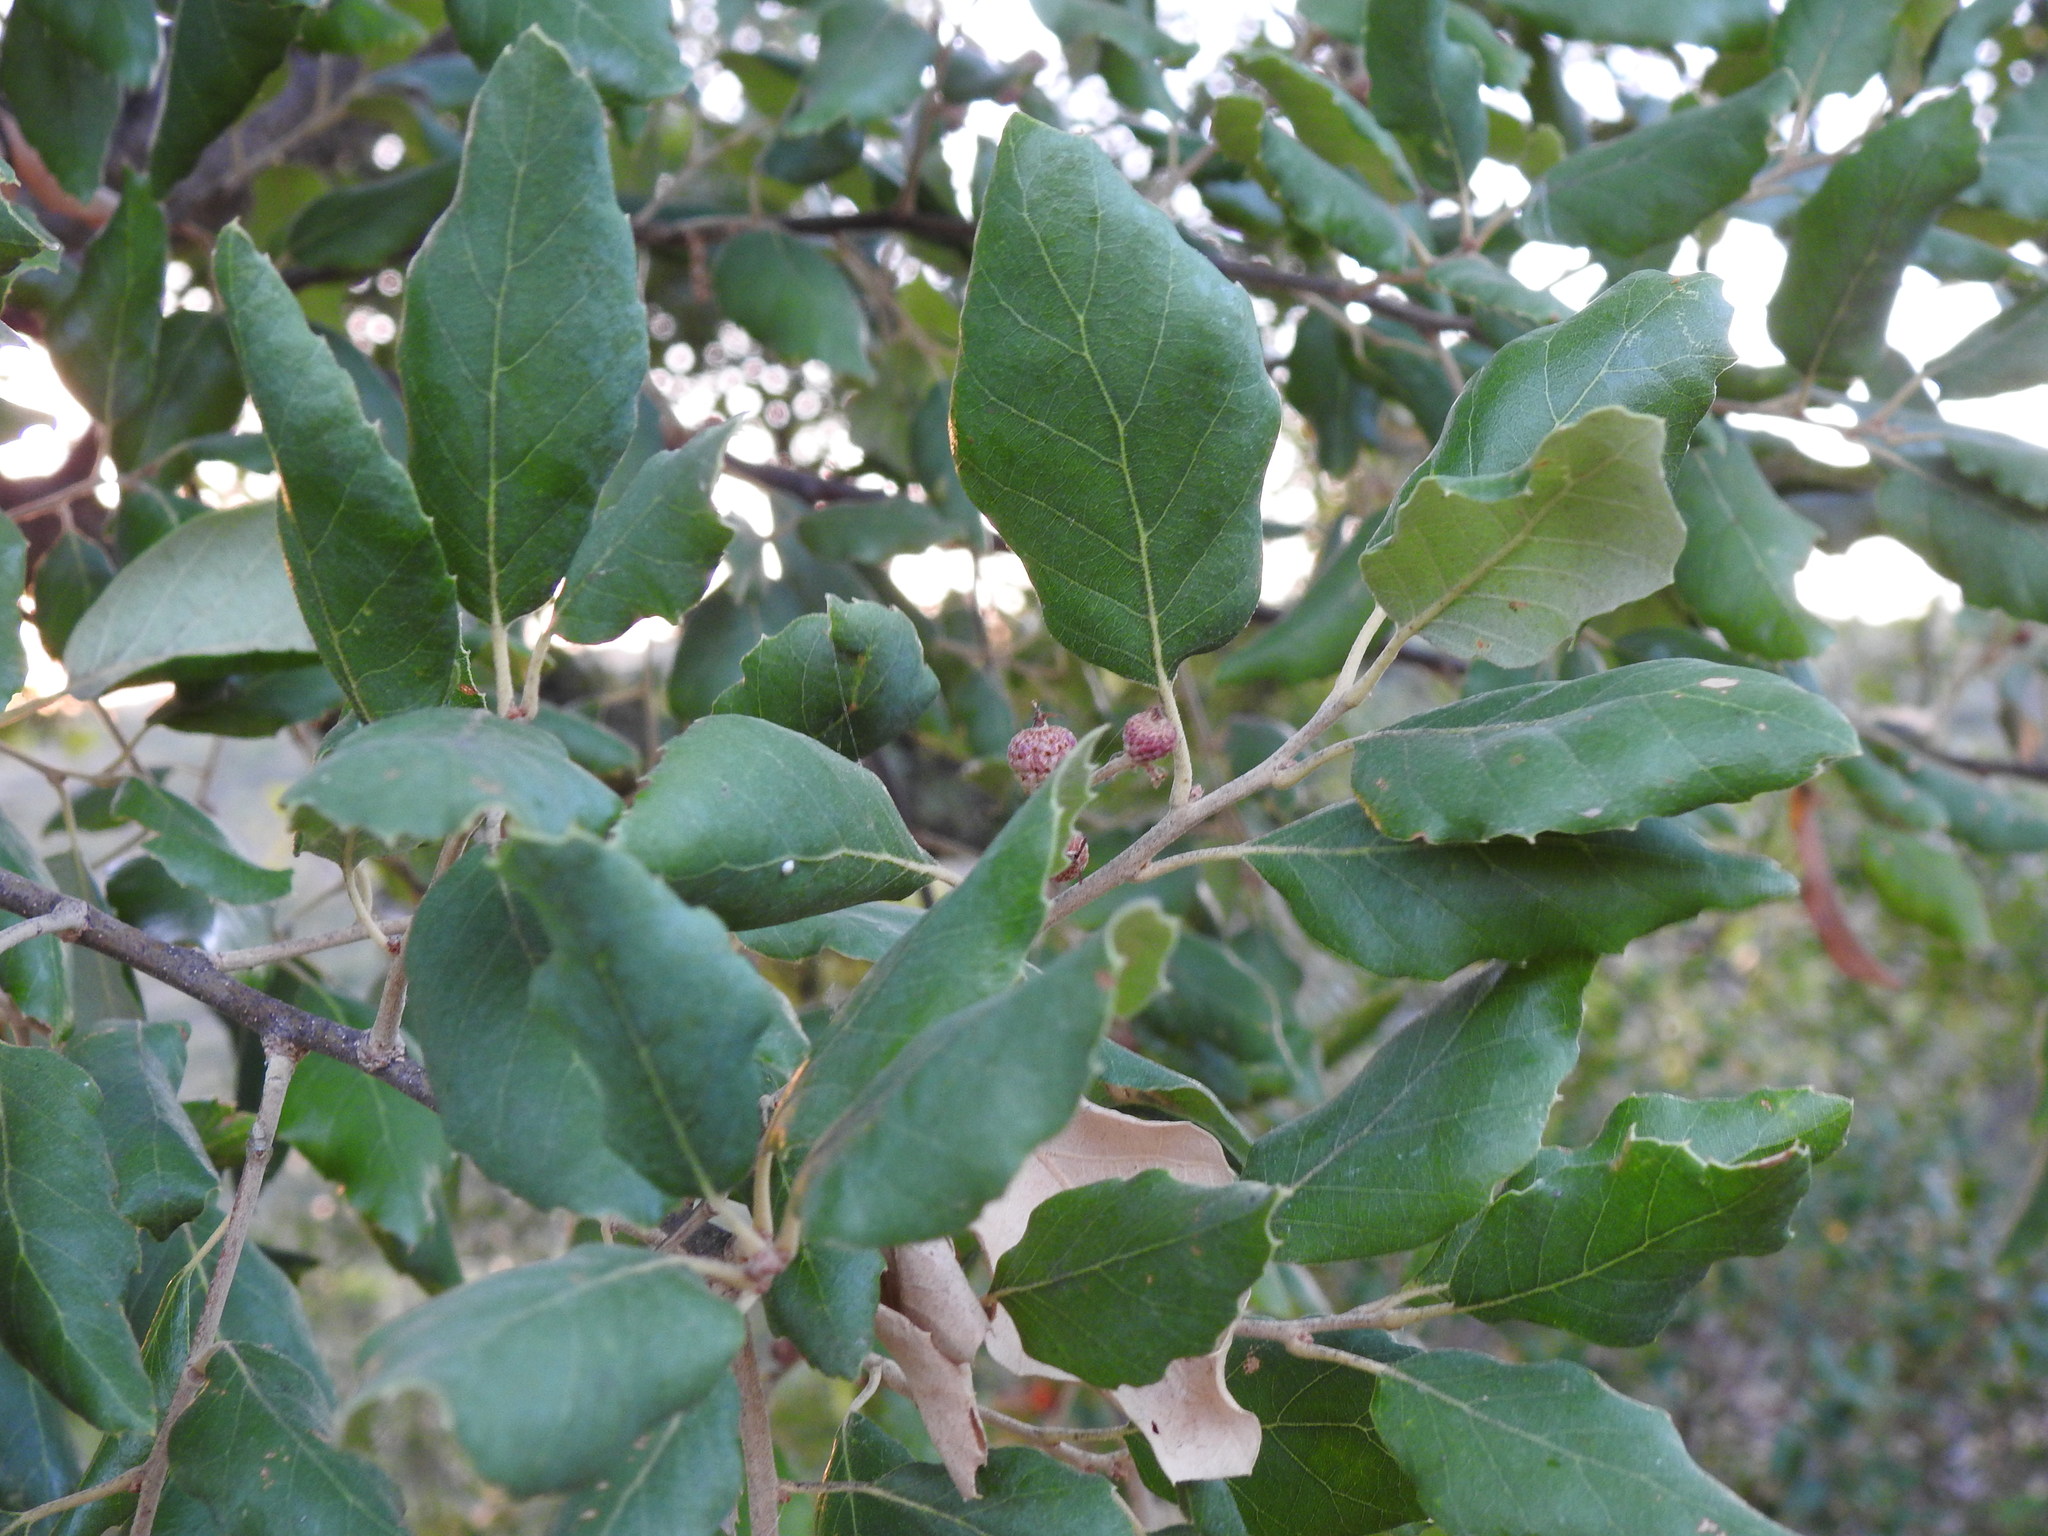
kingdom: Plantae
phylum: Tracheophyta
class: Magnoliopsida
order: Fagales
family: Fagaceae
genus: Quercus
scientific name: Quercus suber
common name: Cork oak
